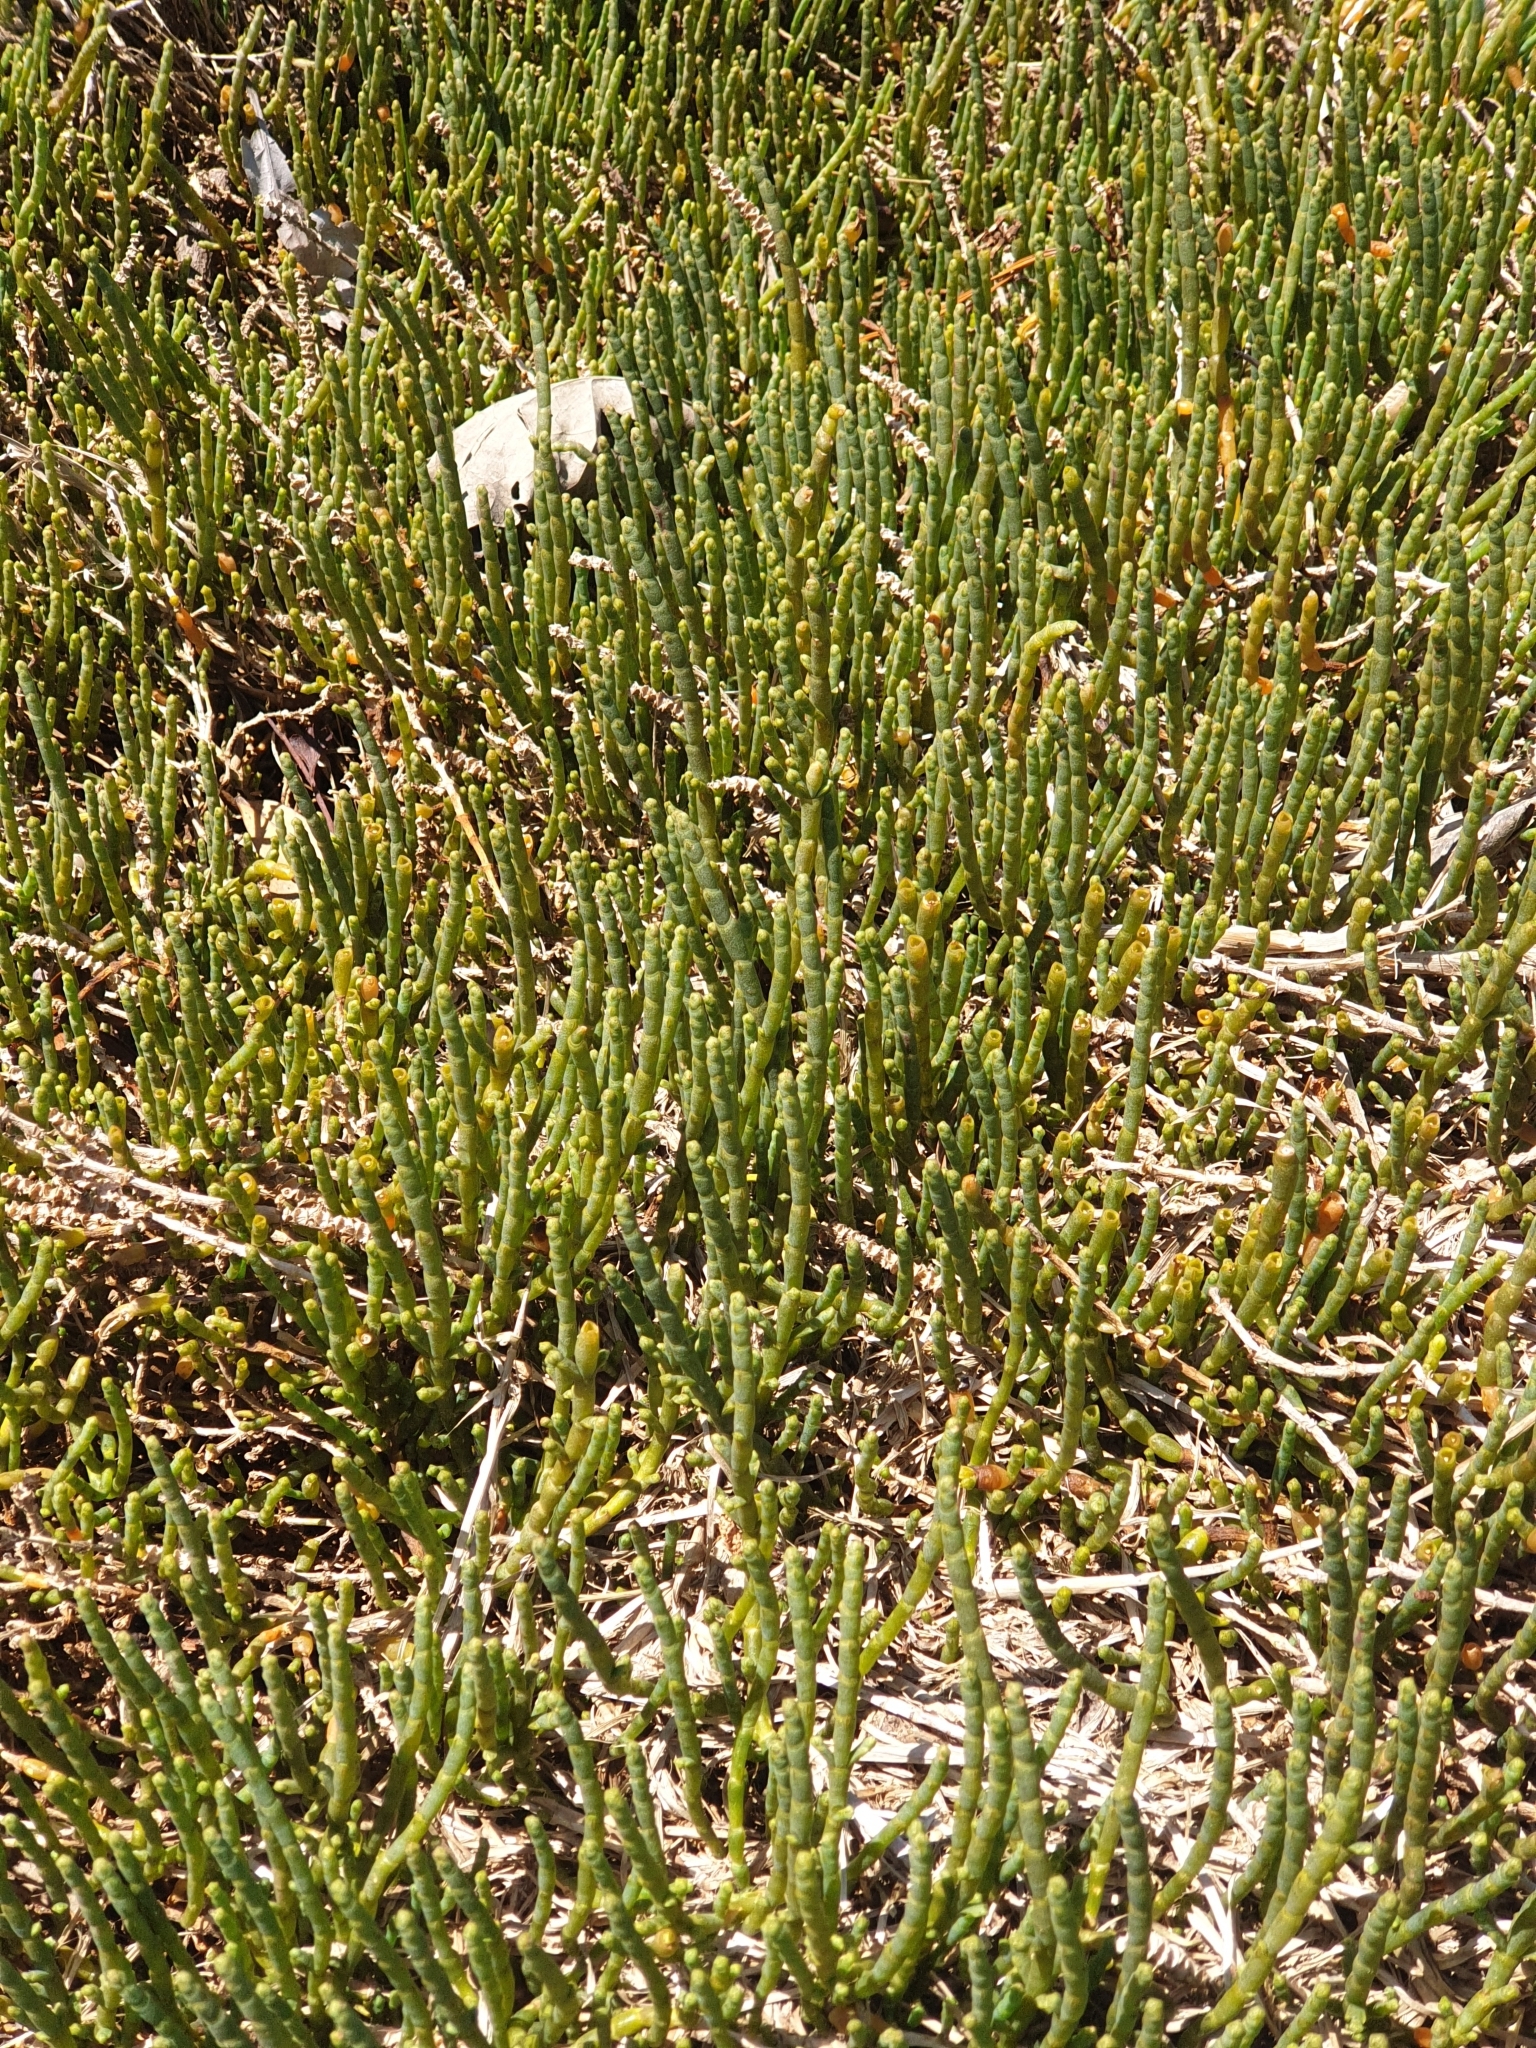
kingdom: Plantae
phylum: Tracheophyta
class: Magnoliopsida
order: Caryophyllales
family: Amaranthaceae
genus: Salicornia
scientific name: Salicornia quinqueflora
